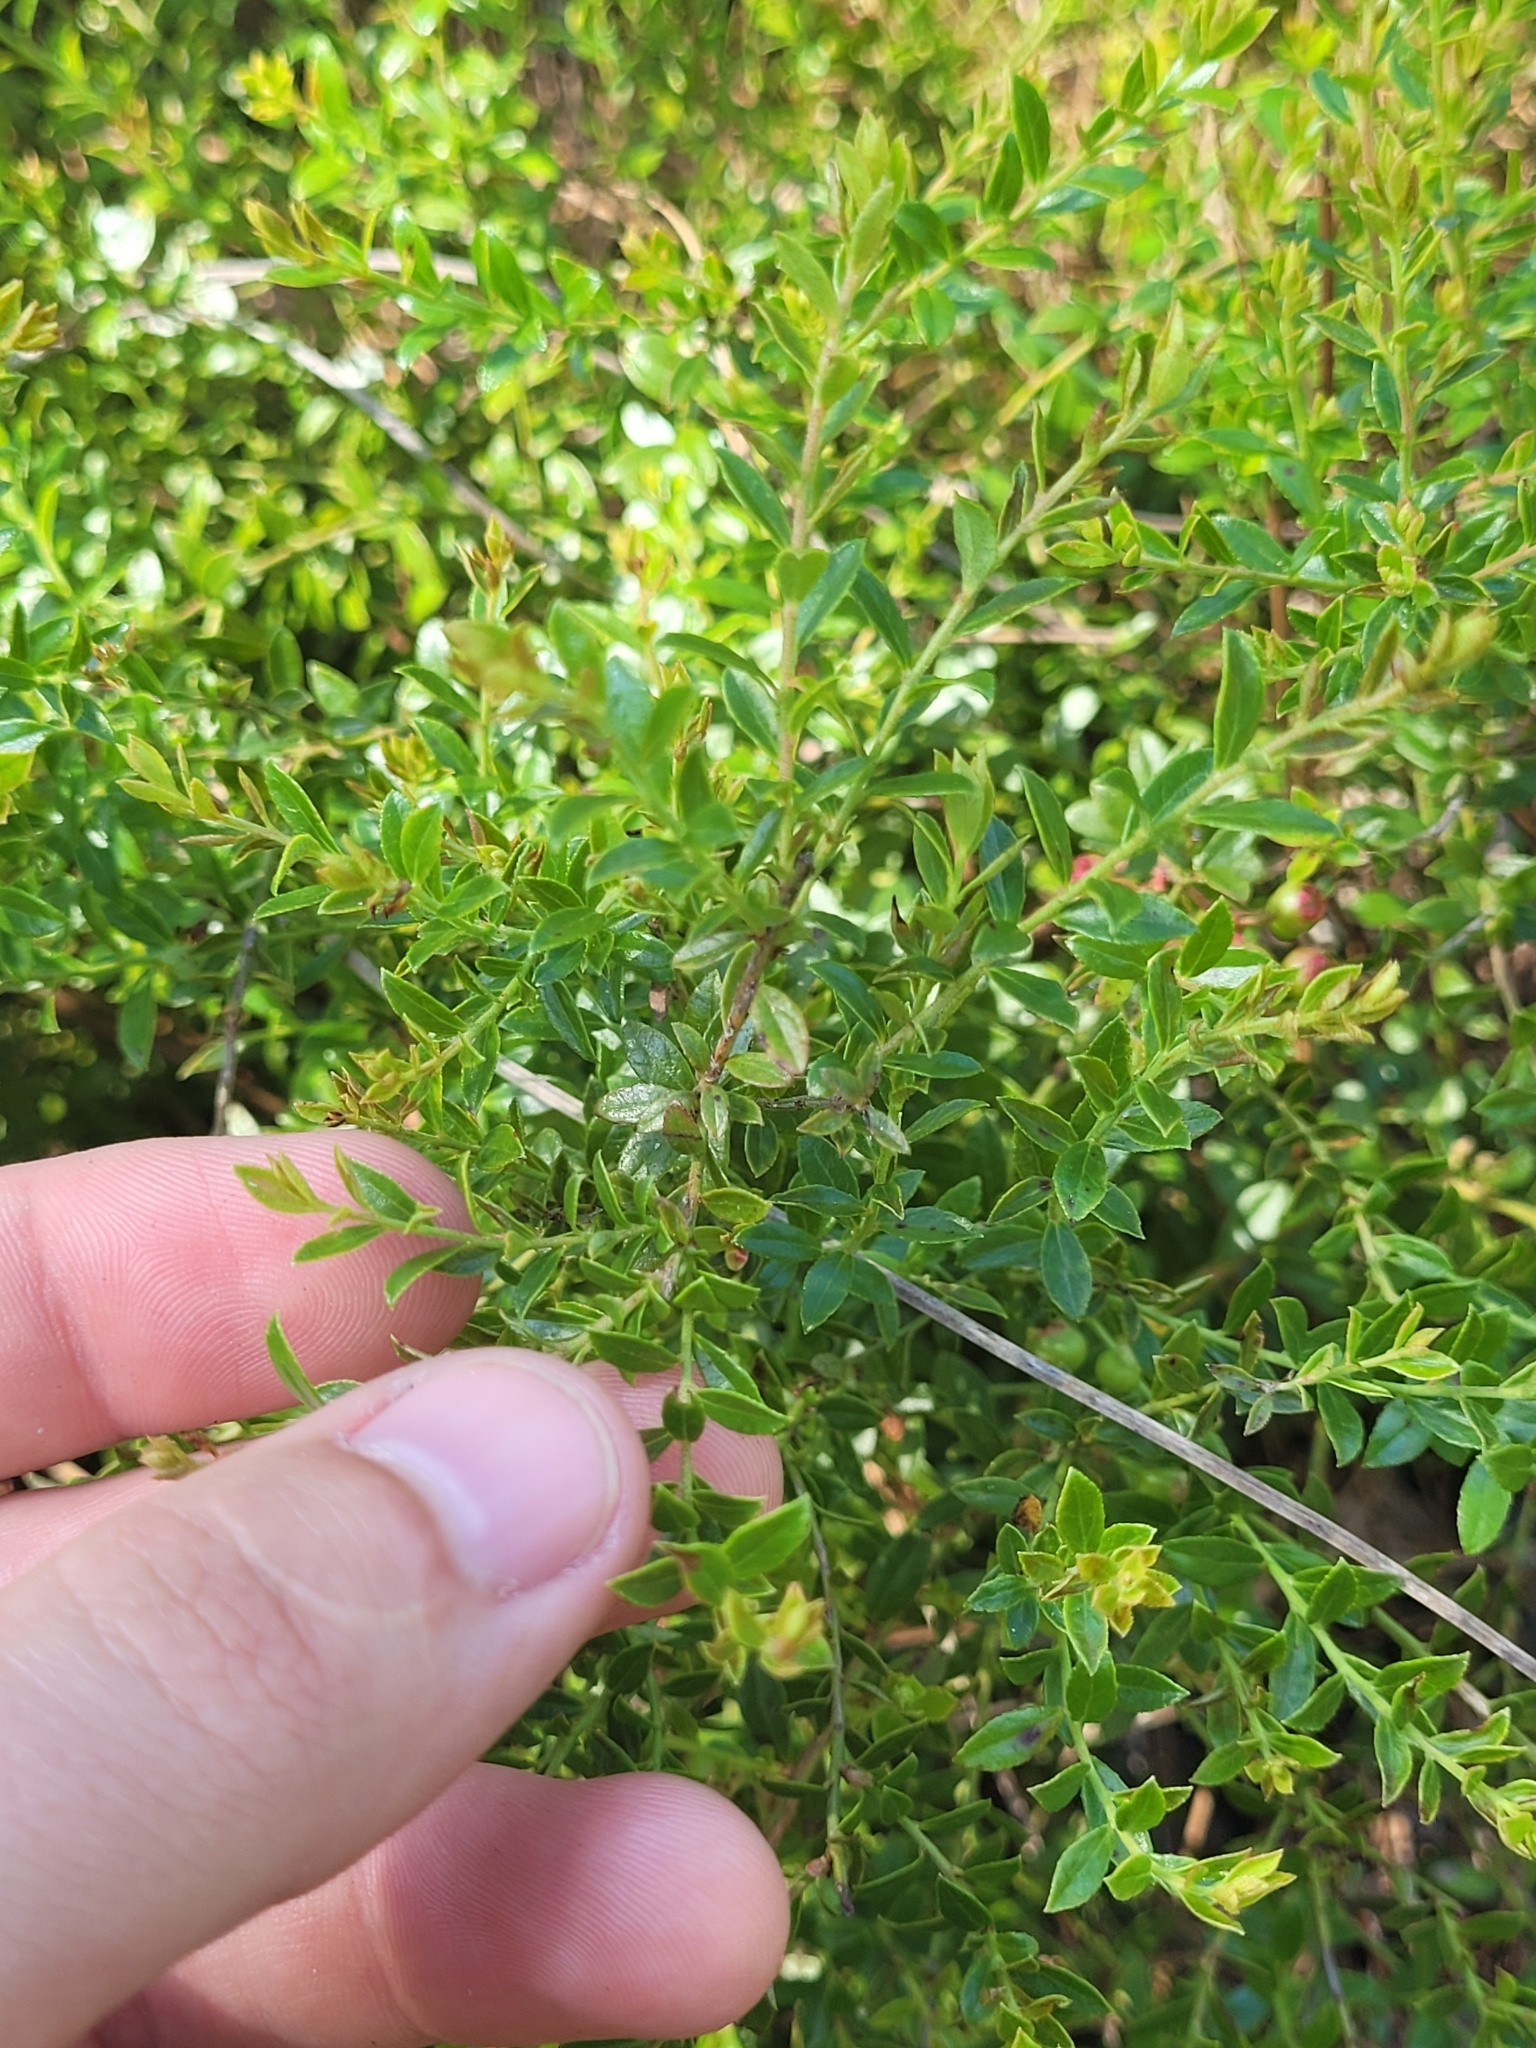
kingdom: Plantae
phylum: Tracheophyta
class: Magnoliopsida
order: Ericales
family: Ericaceae
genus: Vaccinium
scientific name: Vaccinium myrsinites
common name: Evergreen blueberry
